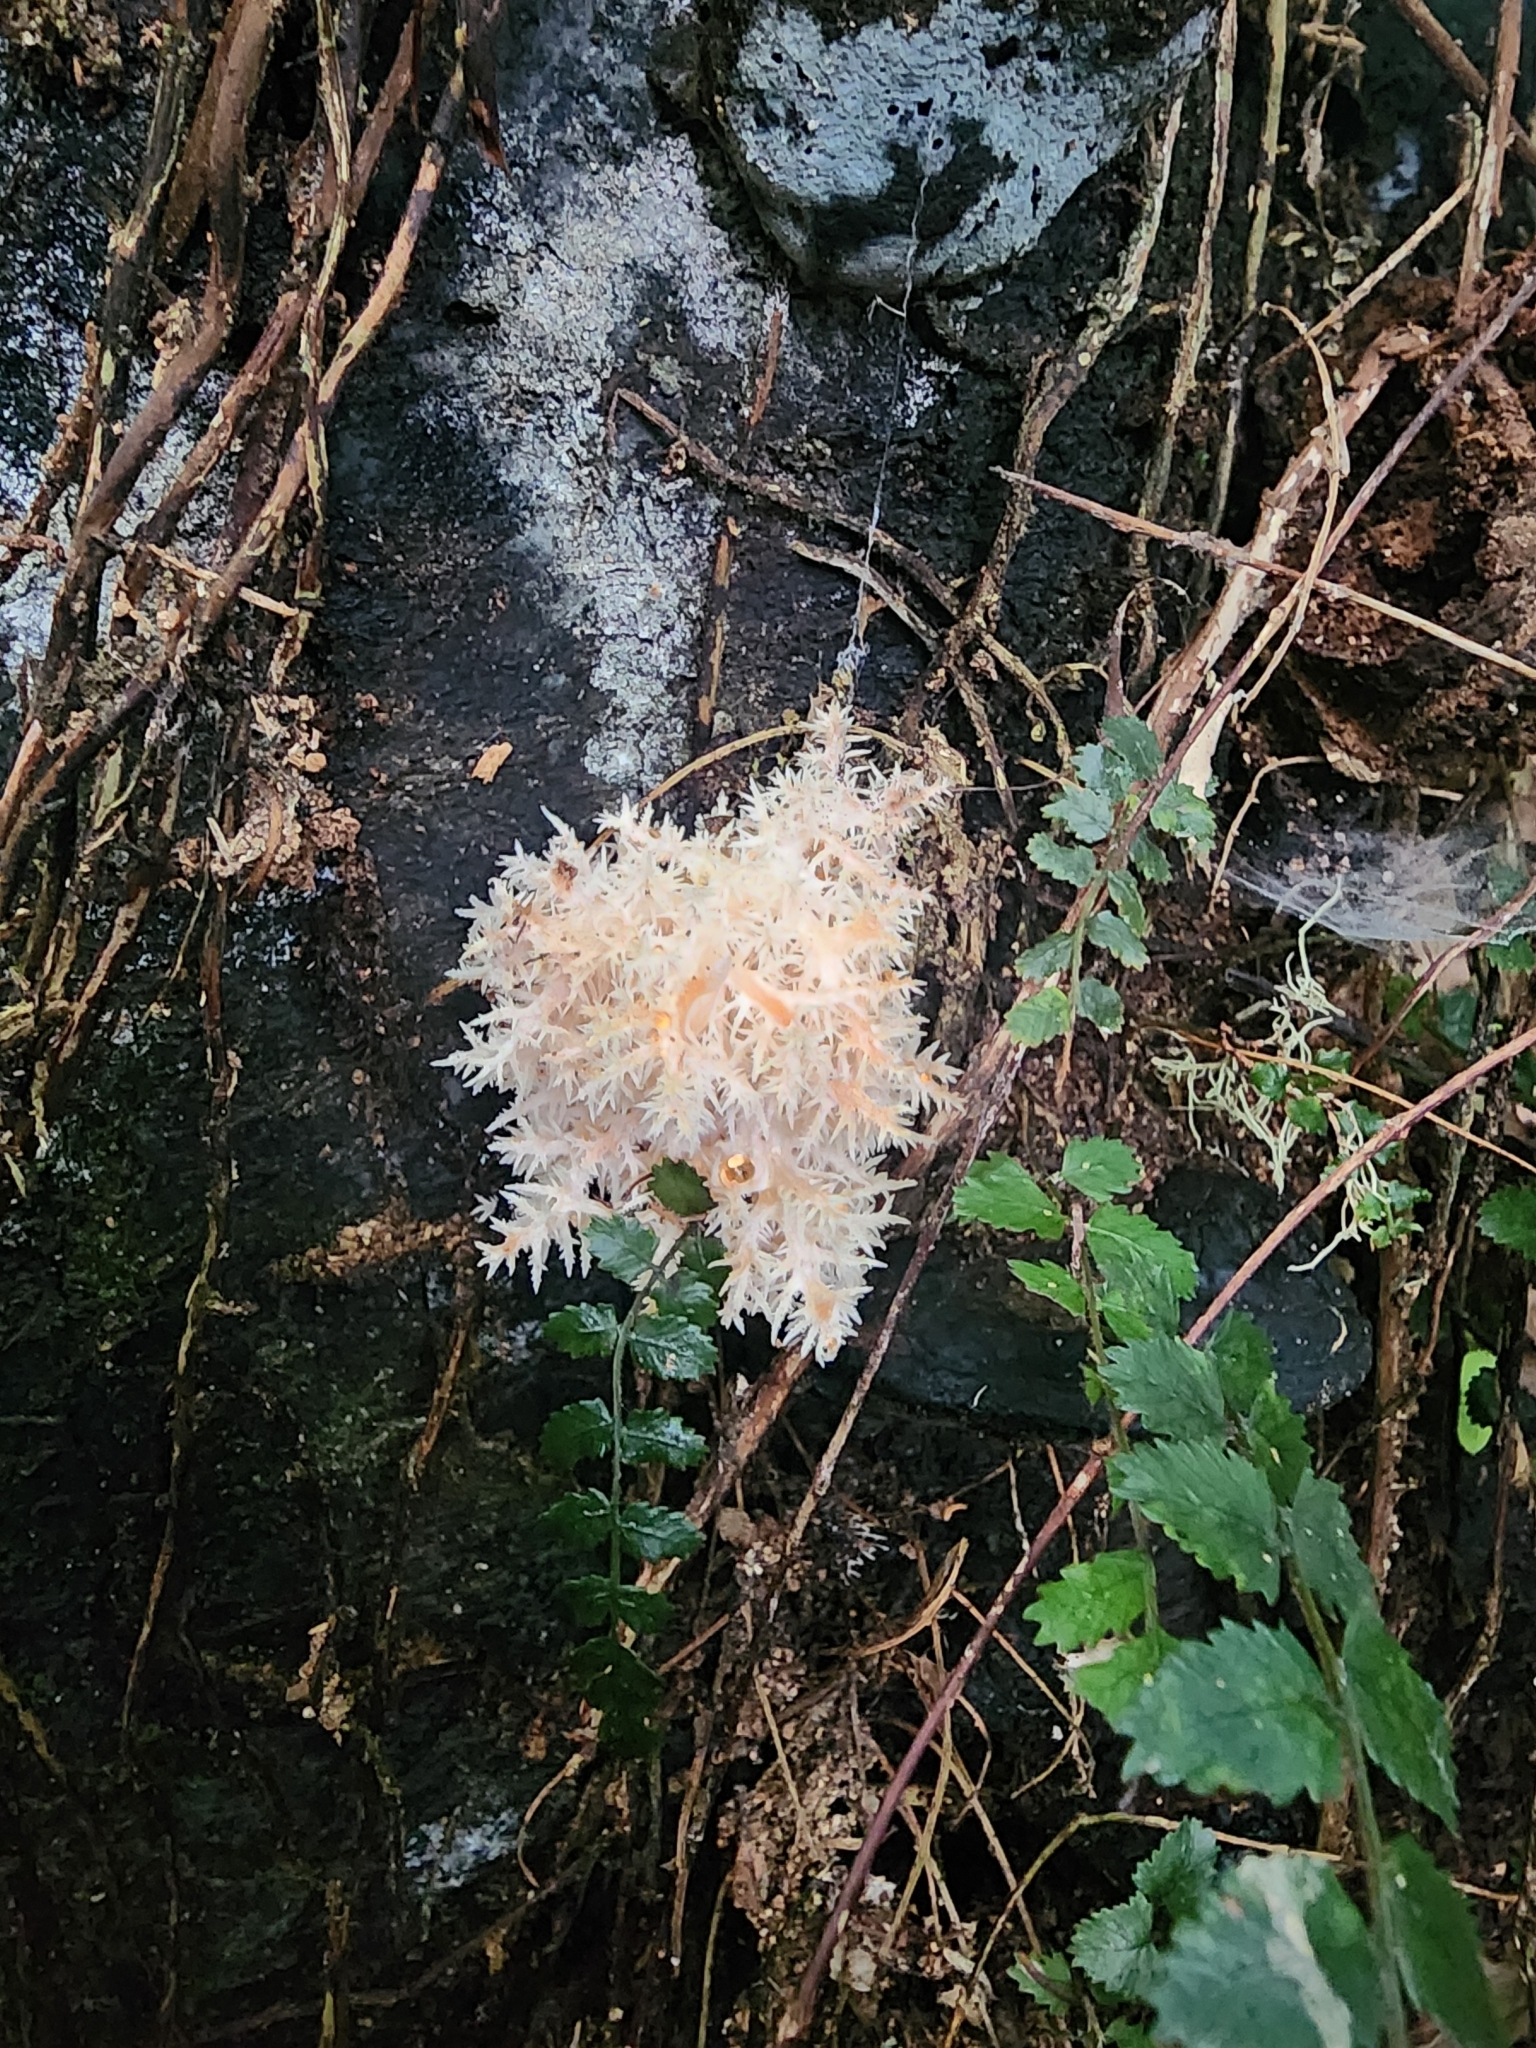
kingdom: Fungi
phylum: Basidiomycota
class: Agaricomycetes
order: Russulales
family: Hericiaceae
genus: Hericium
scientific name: Hericium novae-zealandiae
